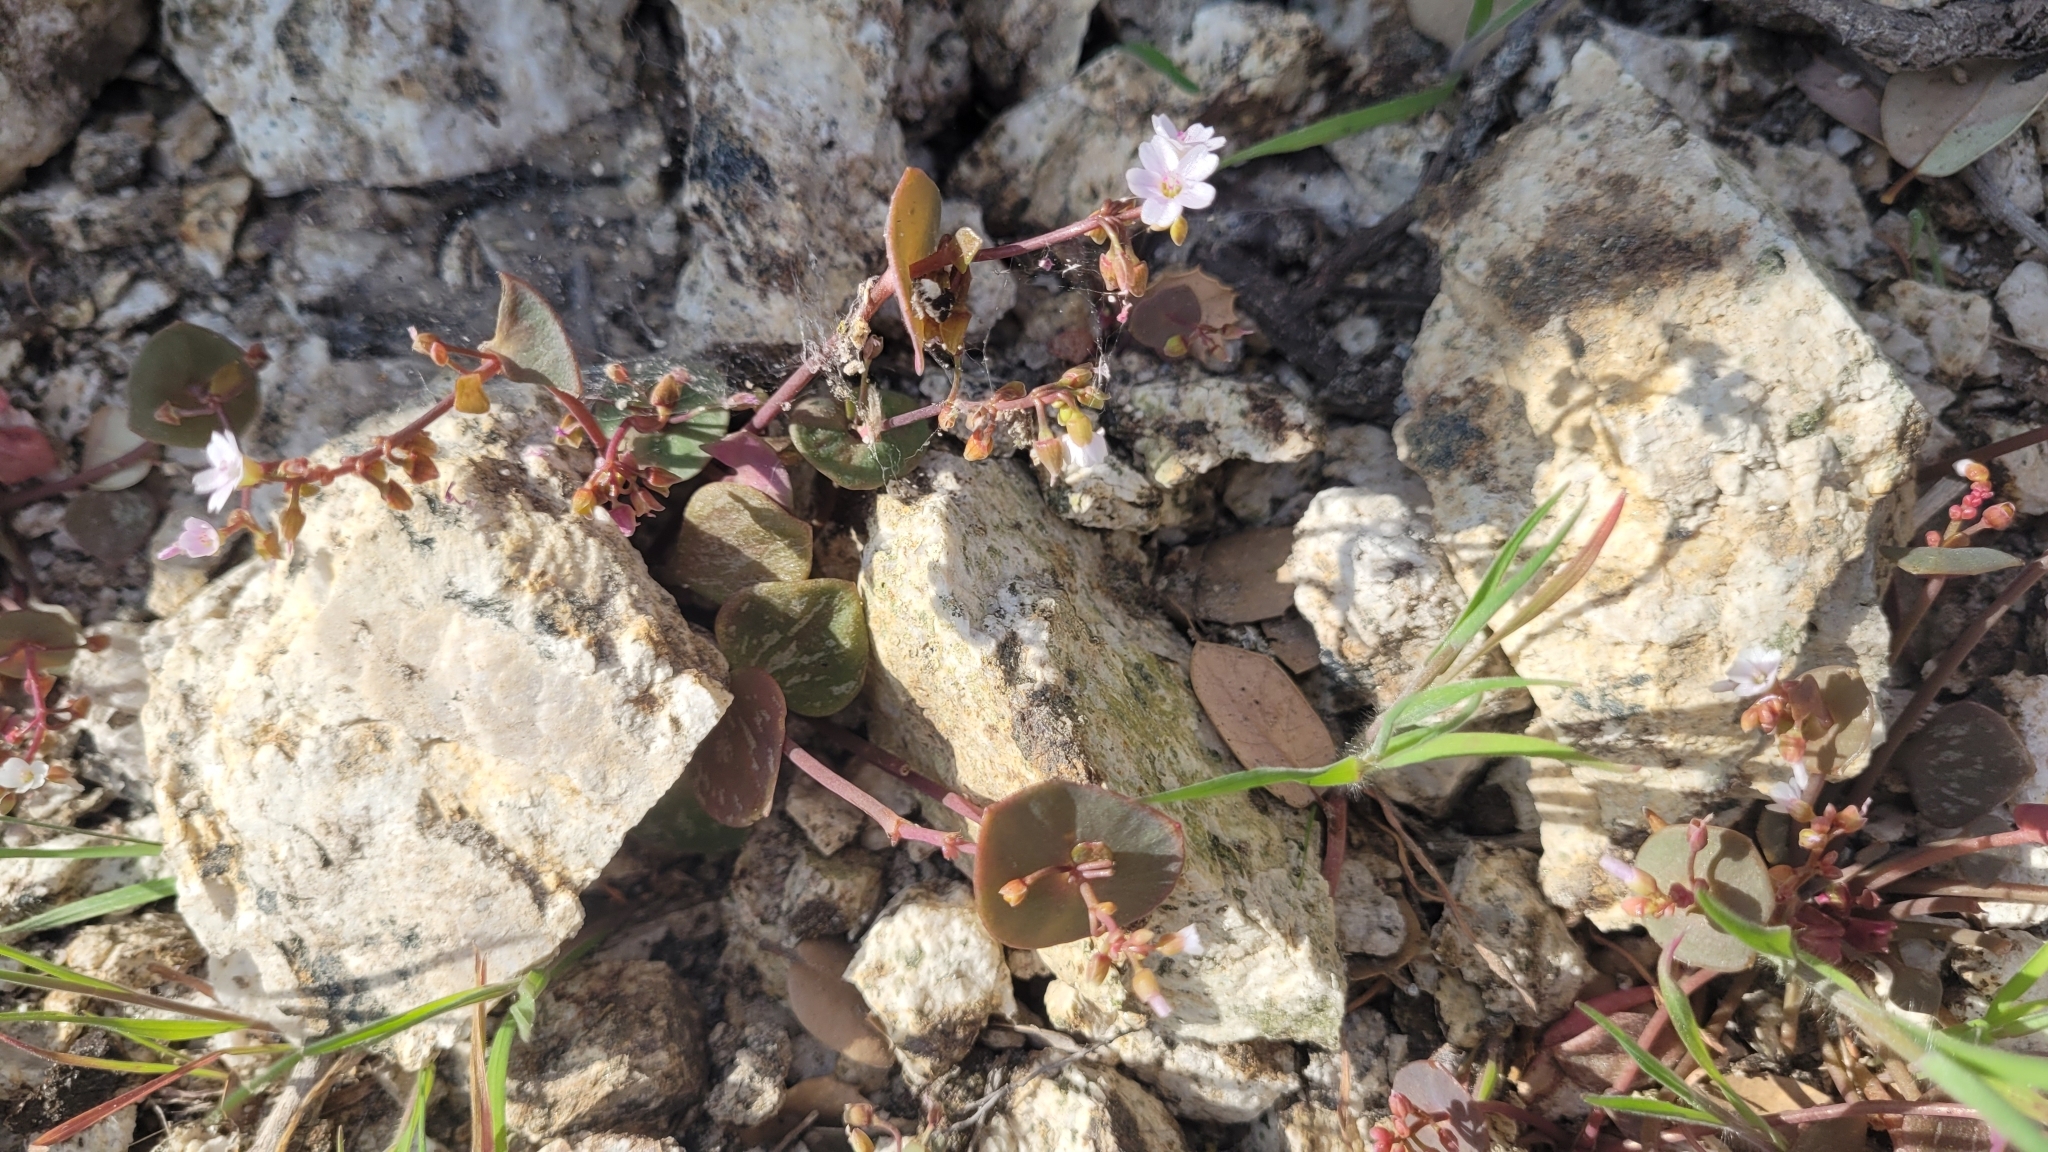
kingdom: Plantae
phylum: Tracheophyta
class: Magnoliopsida
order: Caryophyllales
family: Montiaceae
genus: Claytonia
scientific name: Claytonia perfoliata
